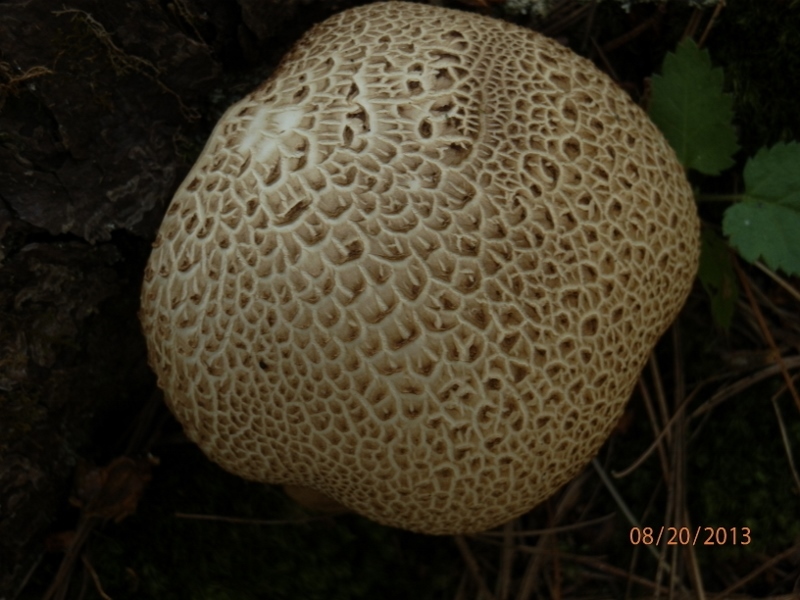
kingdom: Fungi
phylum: Basidiomycota
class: Agaricomycetes
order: Boletales
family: Sclerodermataceae
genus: Scleroderma
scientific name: Scleroderma citrinum
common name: Common earthball
